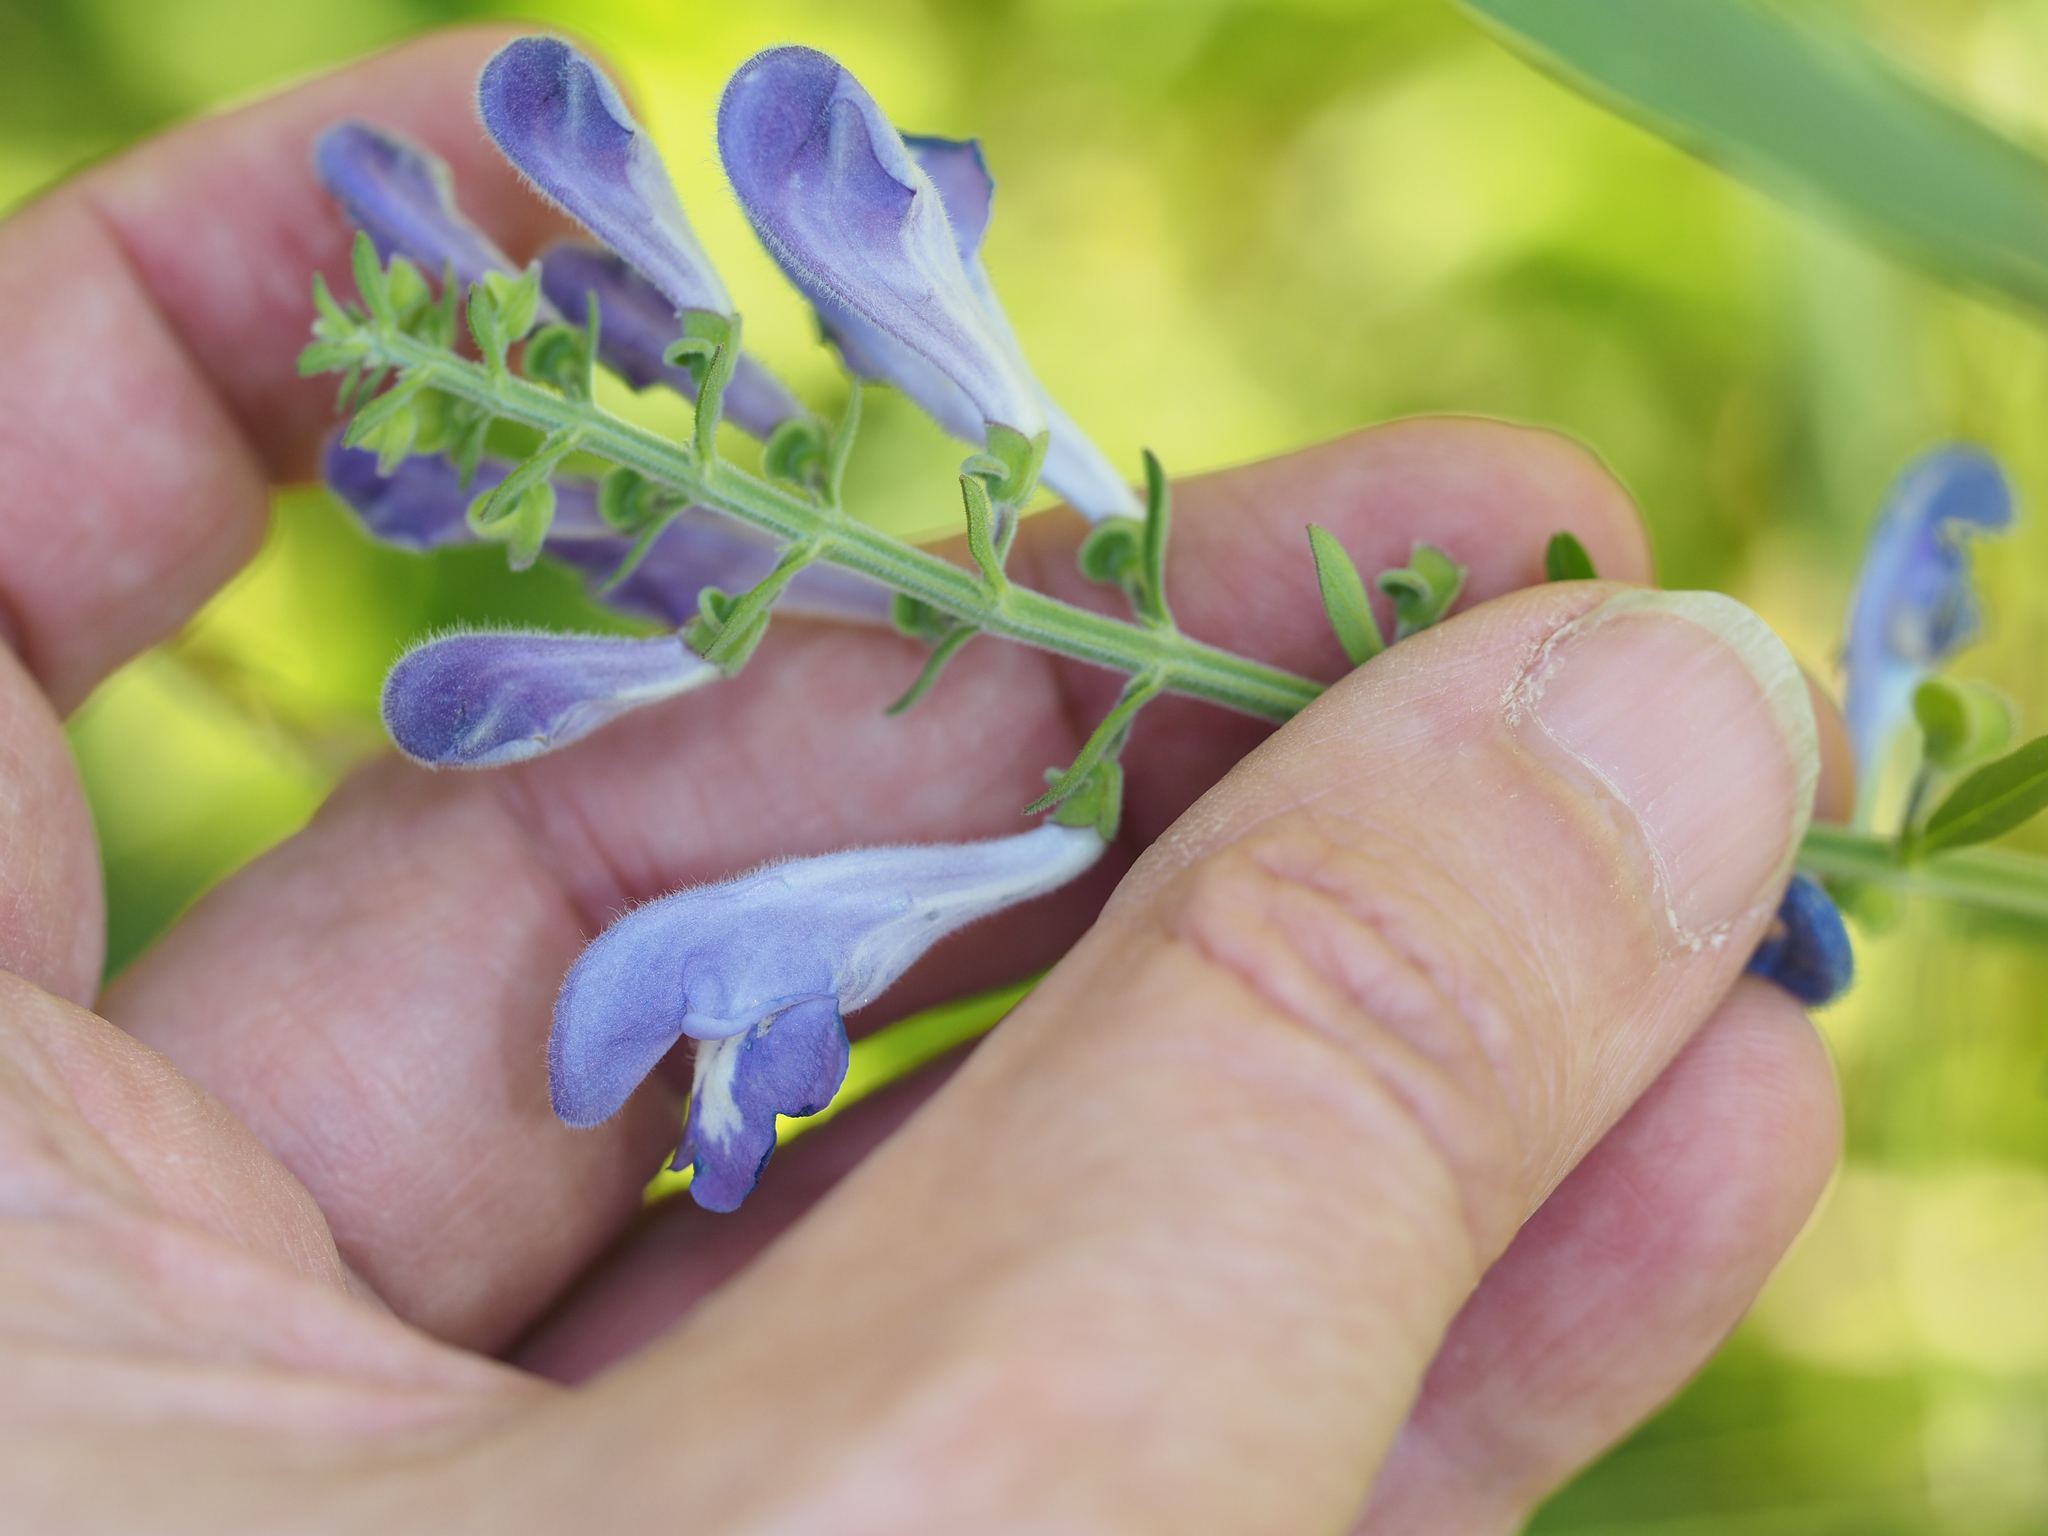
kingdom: Plantae
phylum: Tracheophyta
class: Magnoliopsida
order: Lamiales
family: Lamiaceae
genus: Scutellaria
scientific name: Scutellaria integrifolia
